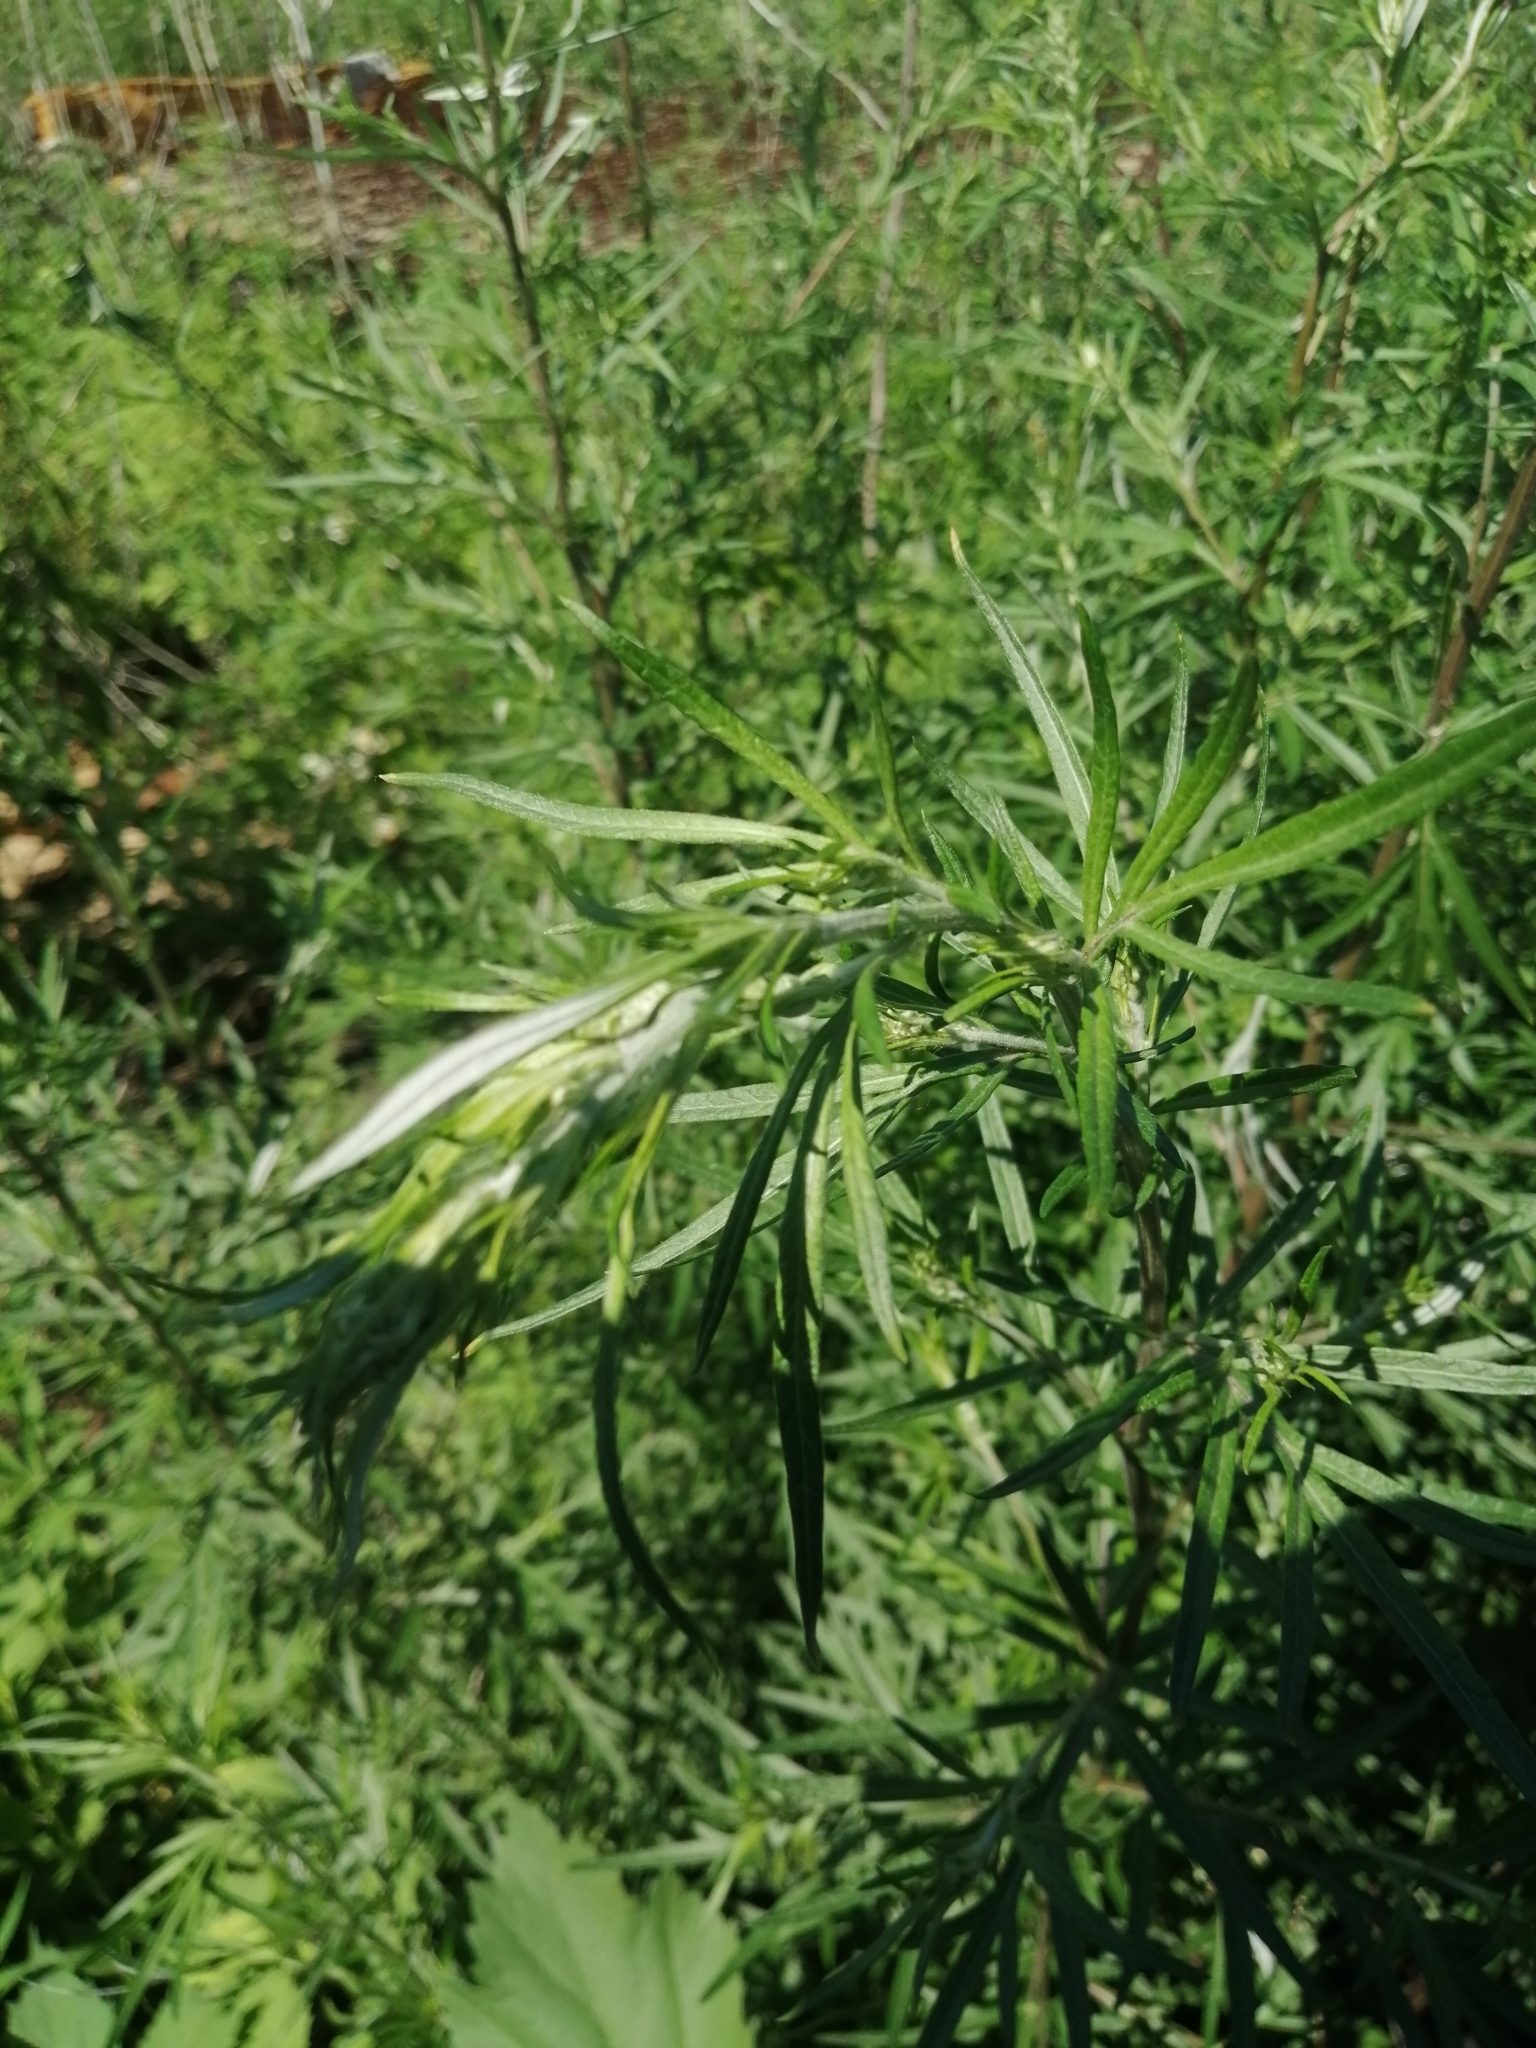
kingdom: Plantae
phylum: Tracheophyta
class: Magnoliopsida
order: Asterales
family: Asteraceae
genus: Artemisia
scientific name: Artemisia vulgaris
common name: Mugwort
